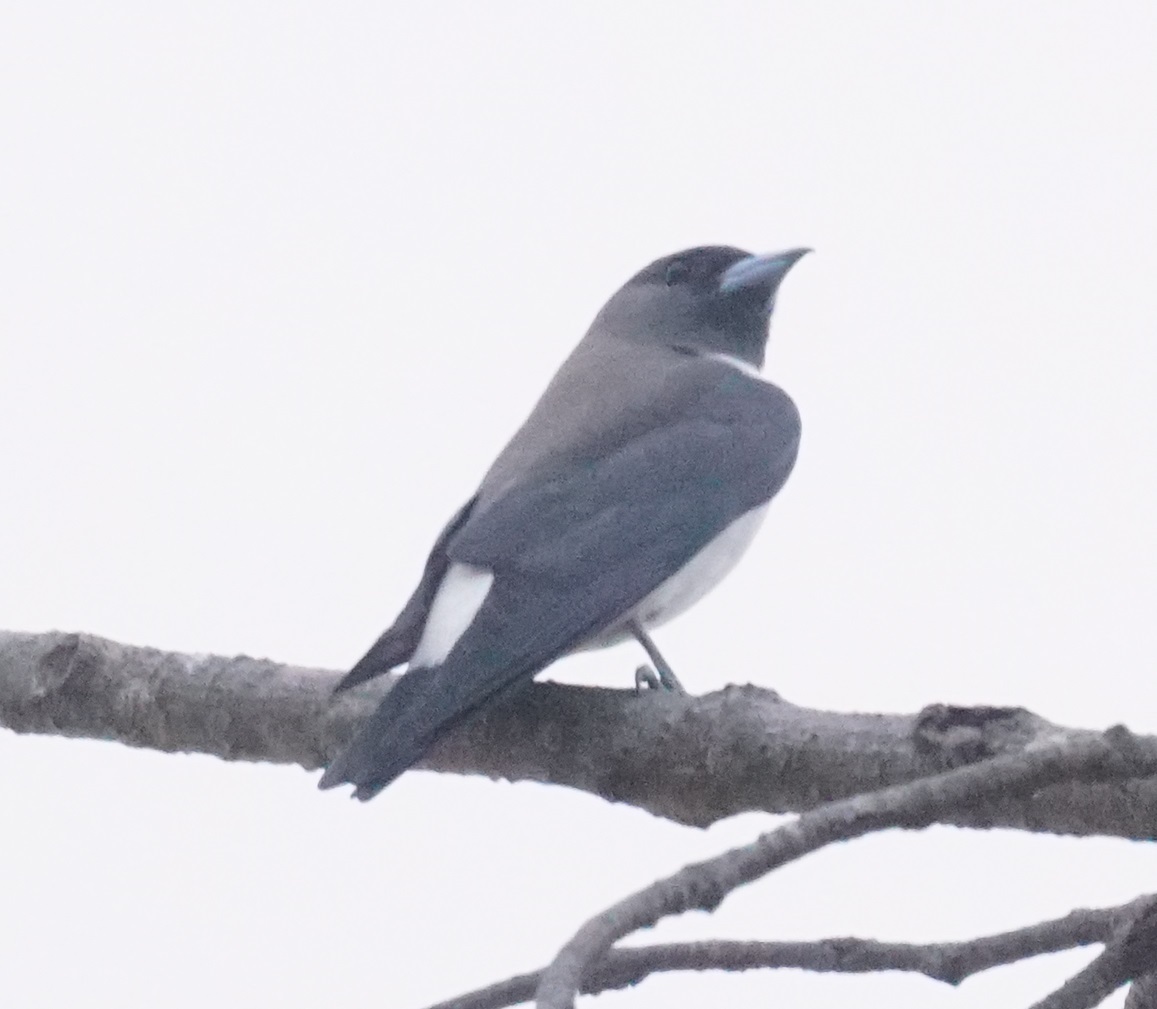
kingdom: Animalia
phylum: Chordata
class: Aves
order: Passeriformes
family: Artamidae
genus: Artamus
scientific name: Artamus leucoryn
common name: White-breasted woodswallow
